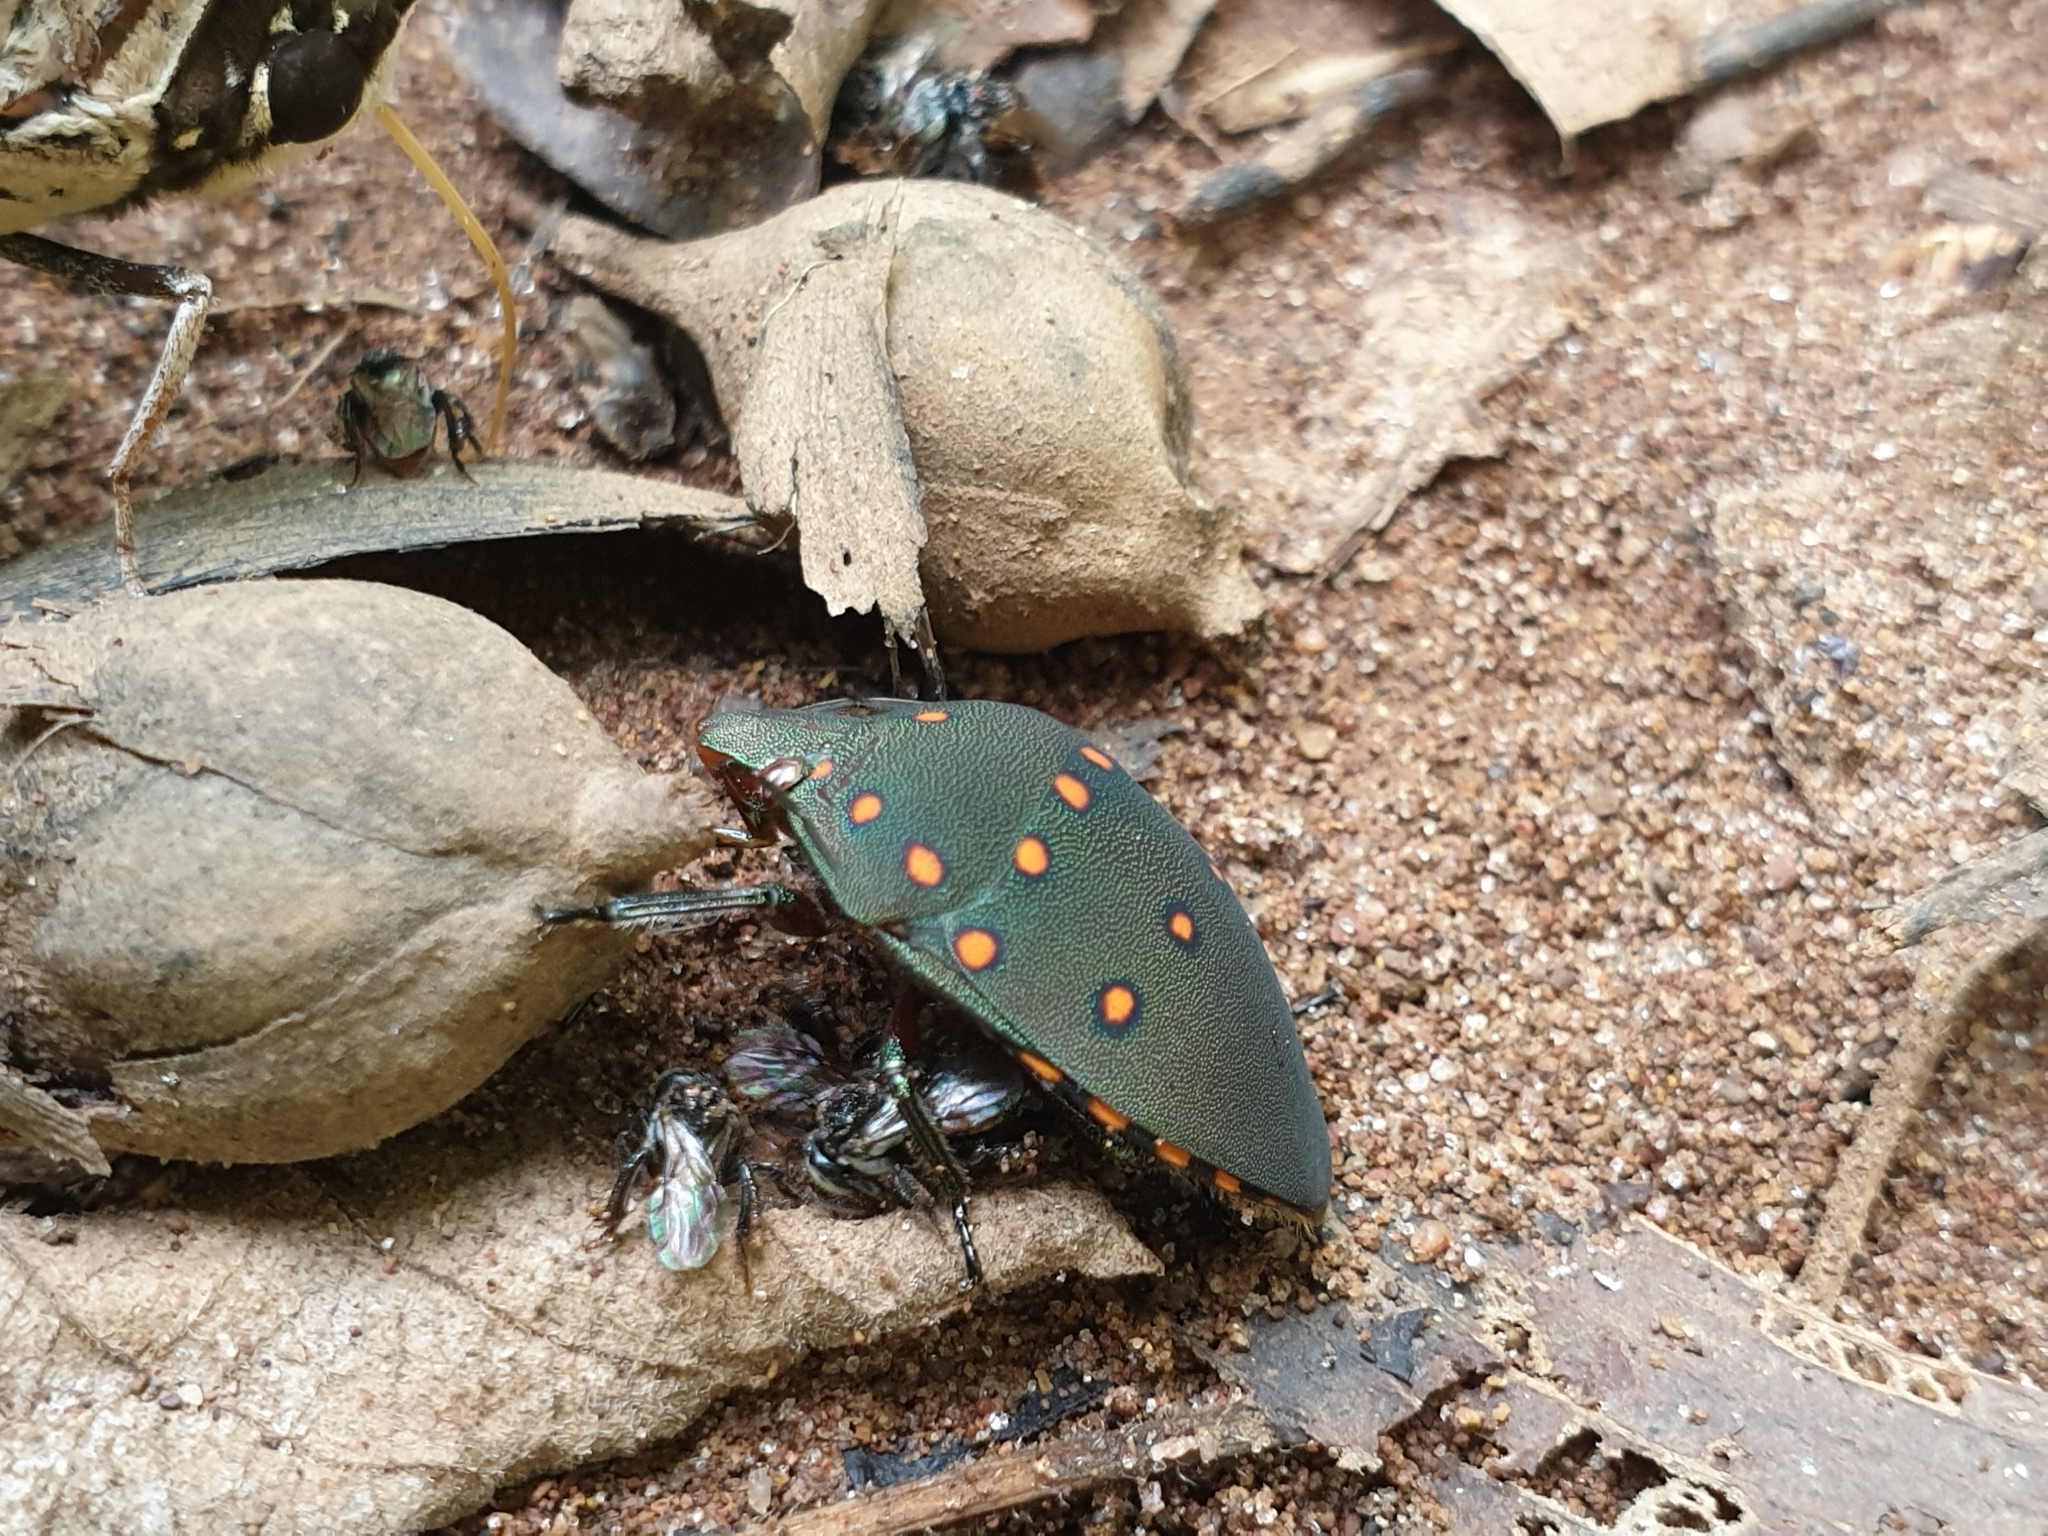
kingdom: Animalia
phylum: Arthropoda
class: Insecta
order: Hemiptera
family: Scutelleridae
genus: Solenosthedium
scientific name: Solenosthedium
